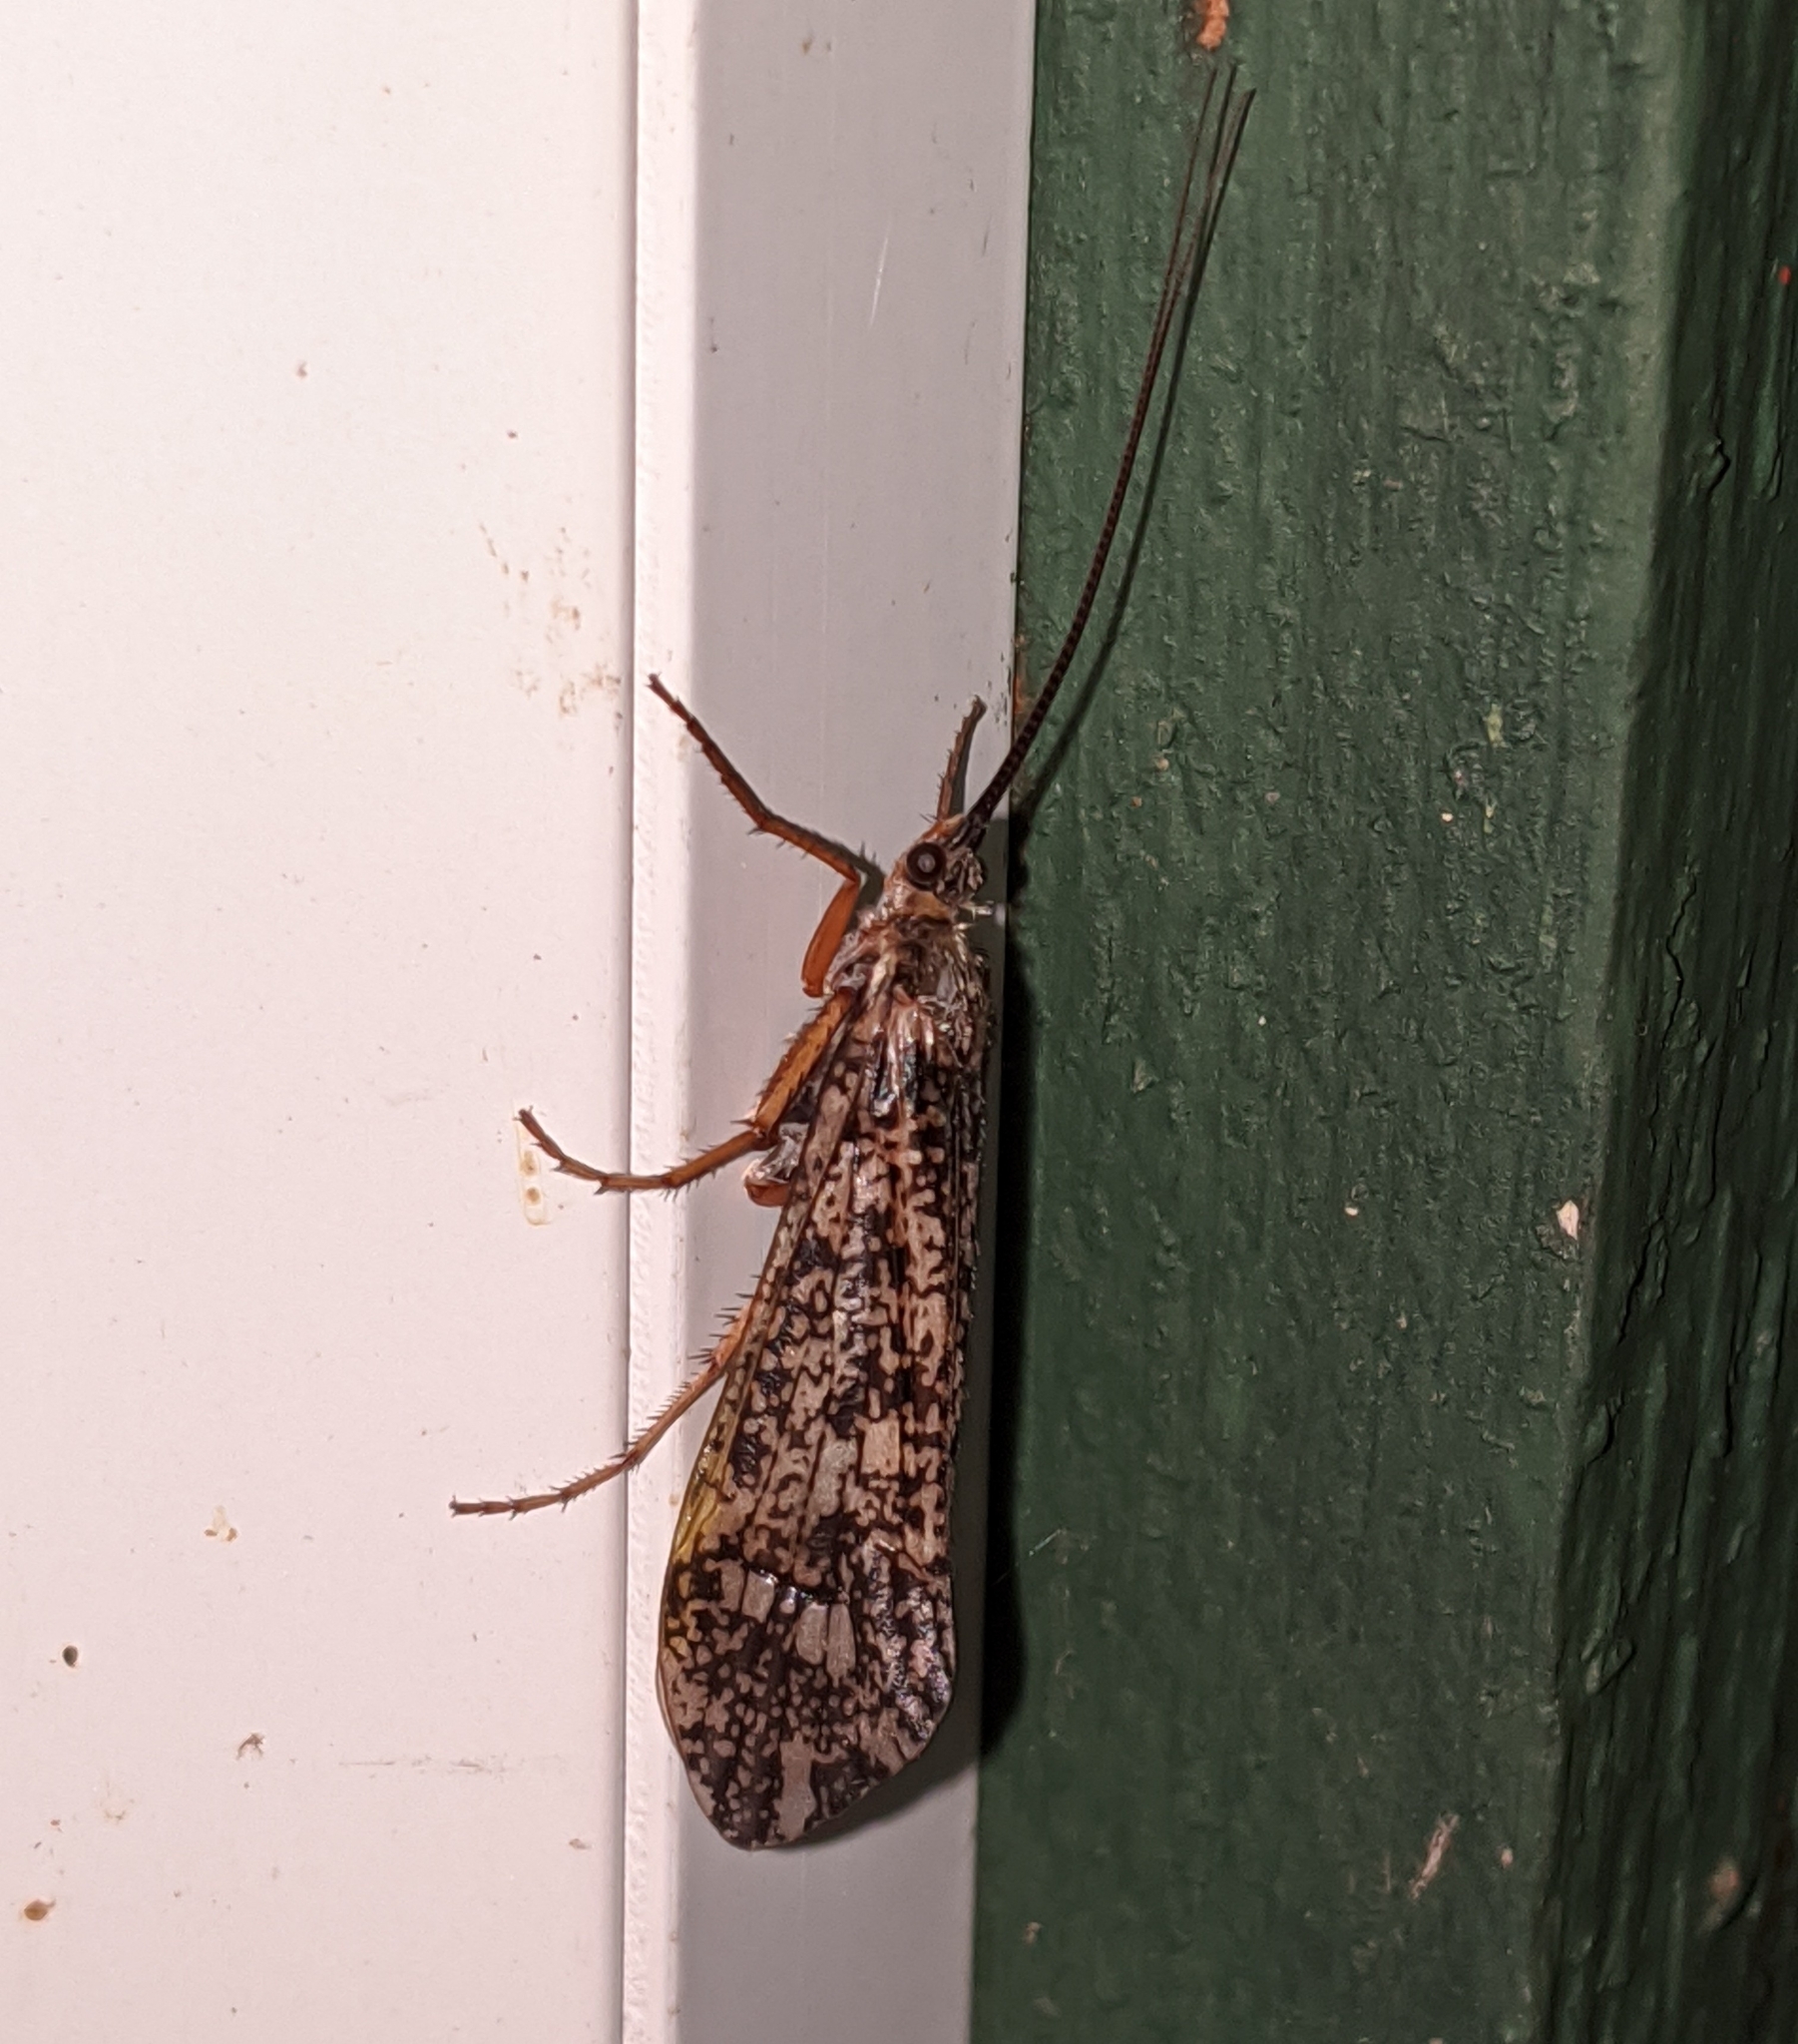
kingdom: Animalia
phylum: Arthropoda
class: Insecta
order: Trichoptera
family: Limnephilidae
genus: Clistoronia
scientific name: Clistoronia magnifica
